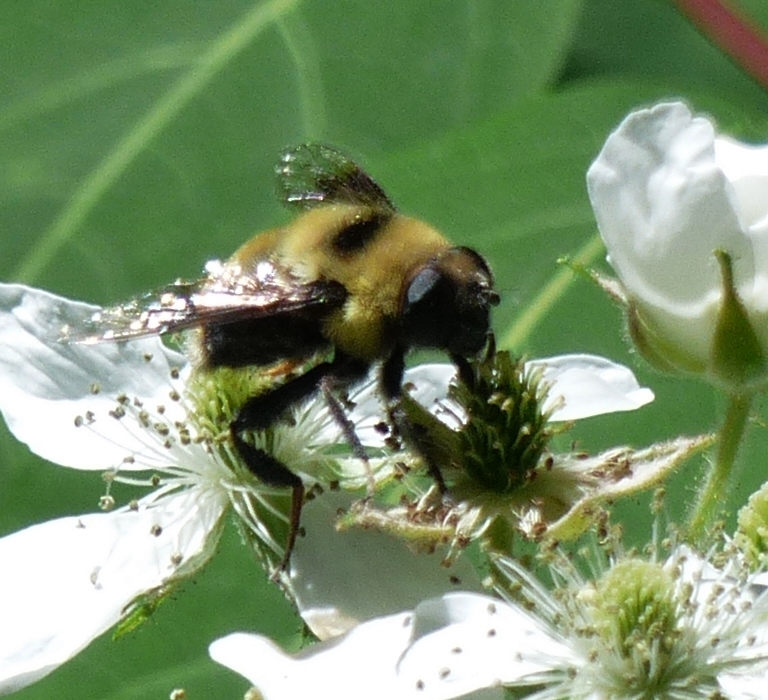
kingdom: Animalia
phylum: Arthropoda
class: Insecta
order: Diptera
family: Syrphidae
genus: Eristalis
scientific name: Eristalis flavipes
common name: Orange-legged drone fly
